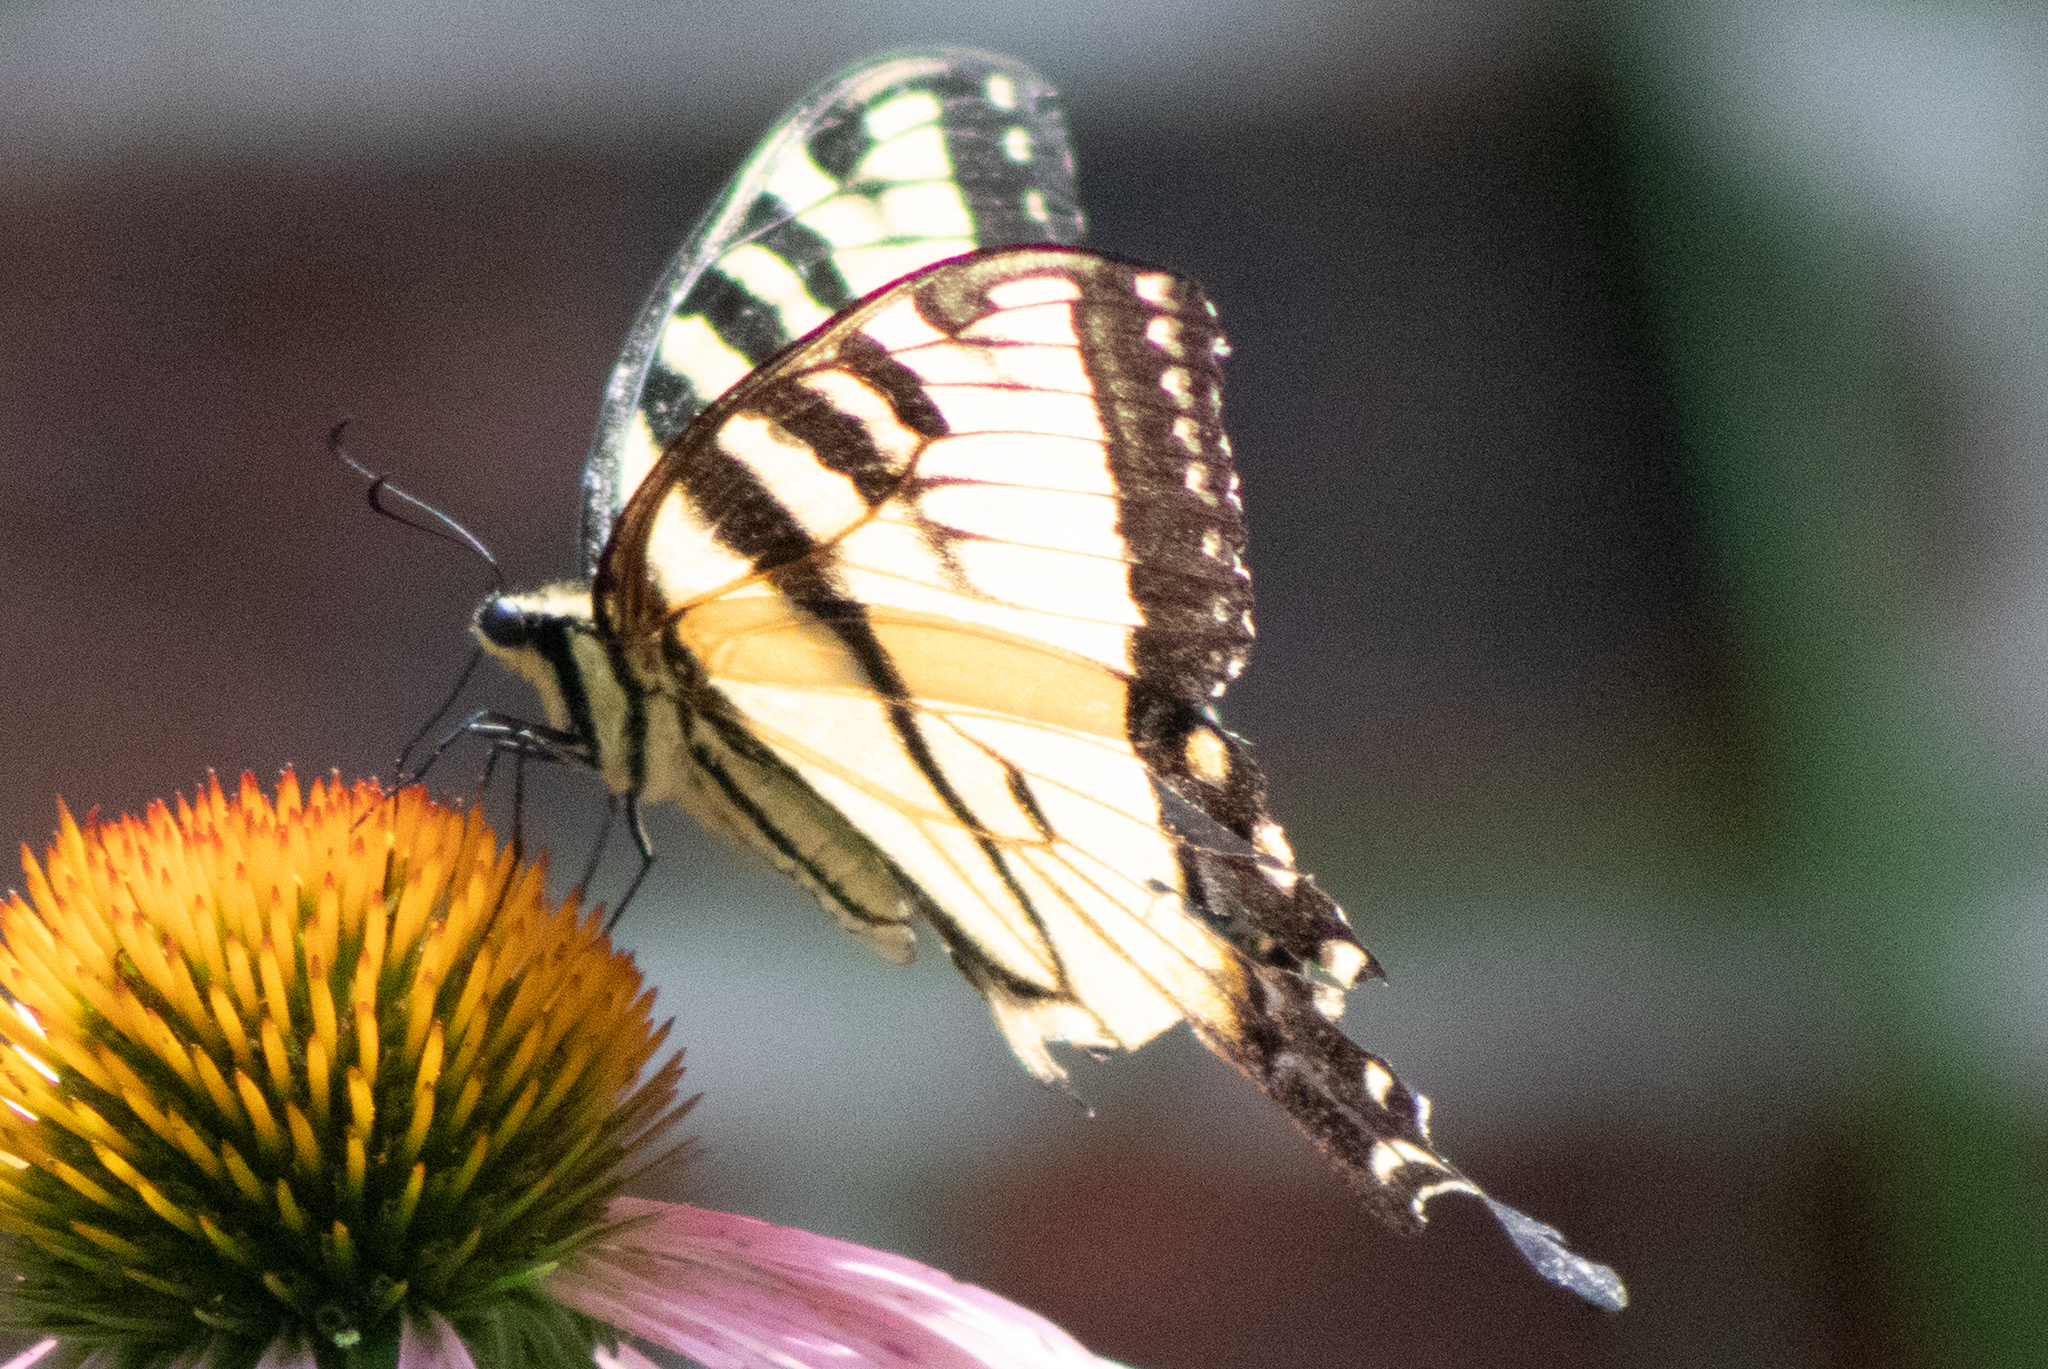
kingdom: Animalia
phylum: Arthropoda
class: Insecta
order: Lepidoptera
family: Papilionidae
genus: Papilio
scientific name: Papilio glaucus
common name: Tiger swallowtail
